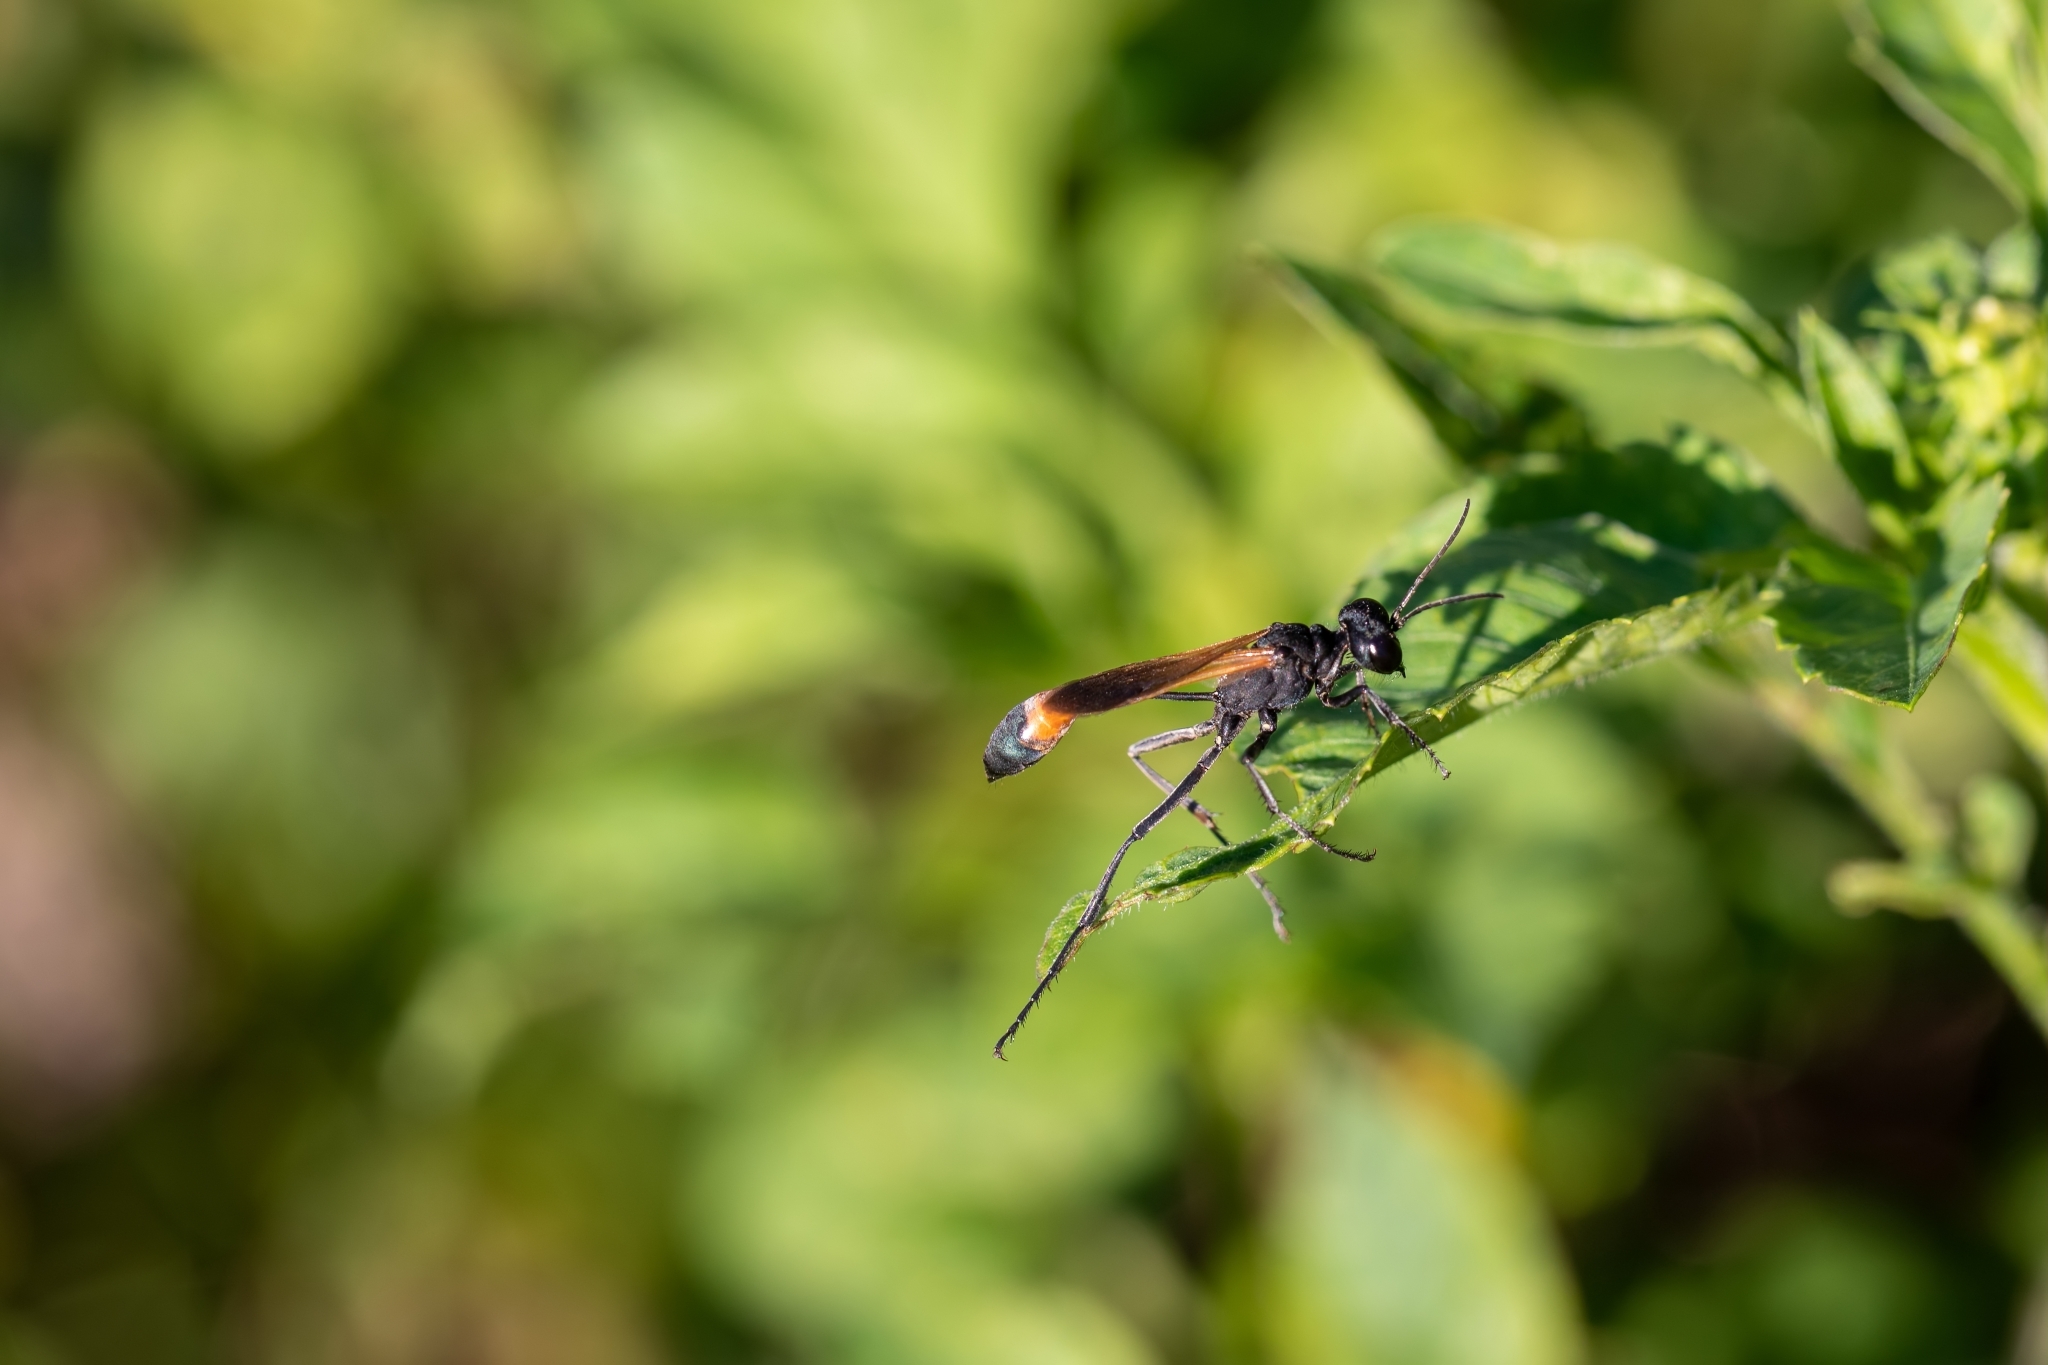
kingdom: Animalia
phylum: Arthropoda
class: Insecta
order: Hymenoptera
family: Sphecidae
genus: Ammophila
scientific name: Ammophila pictipennis
